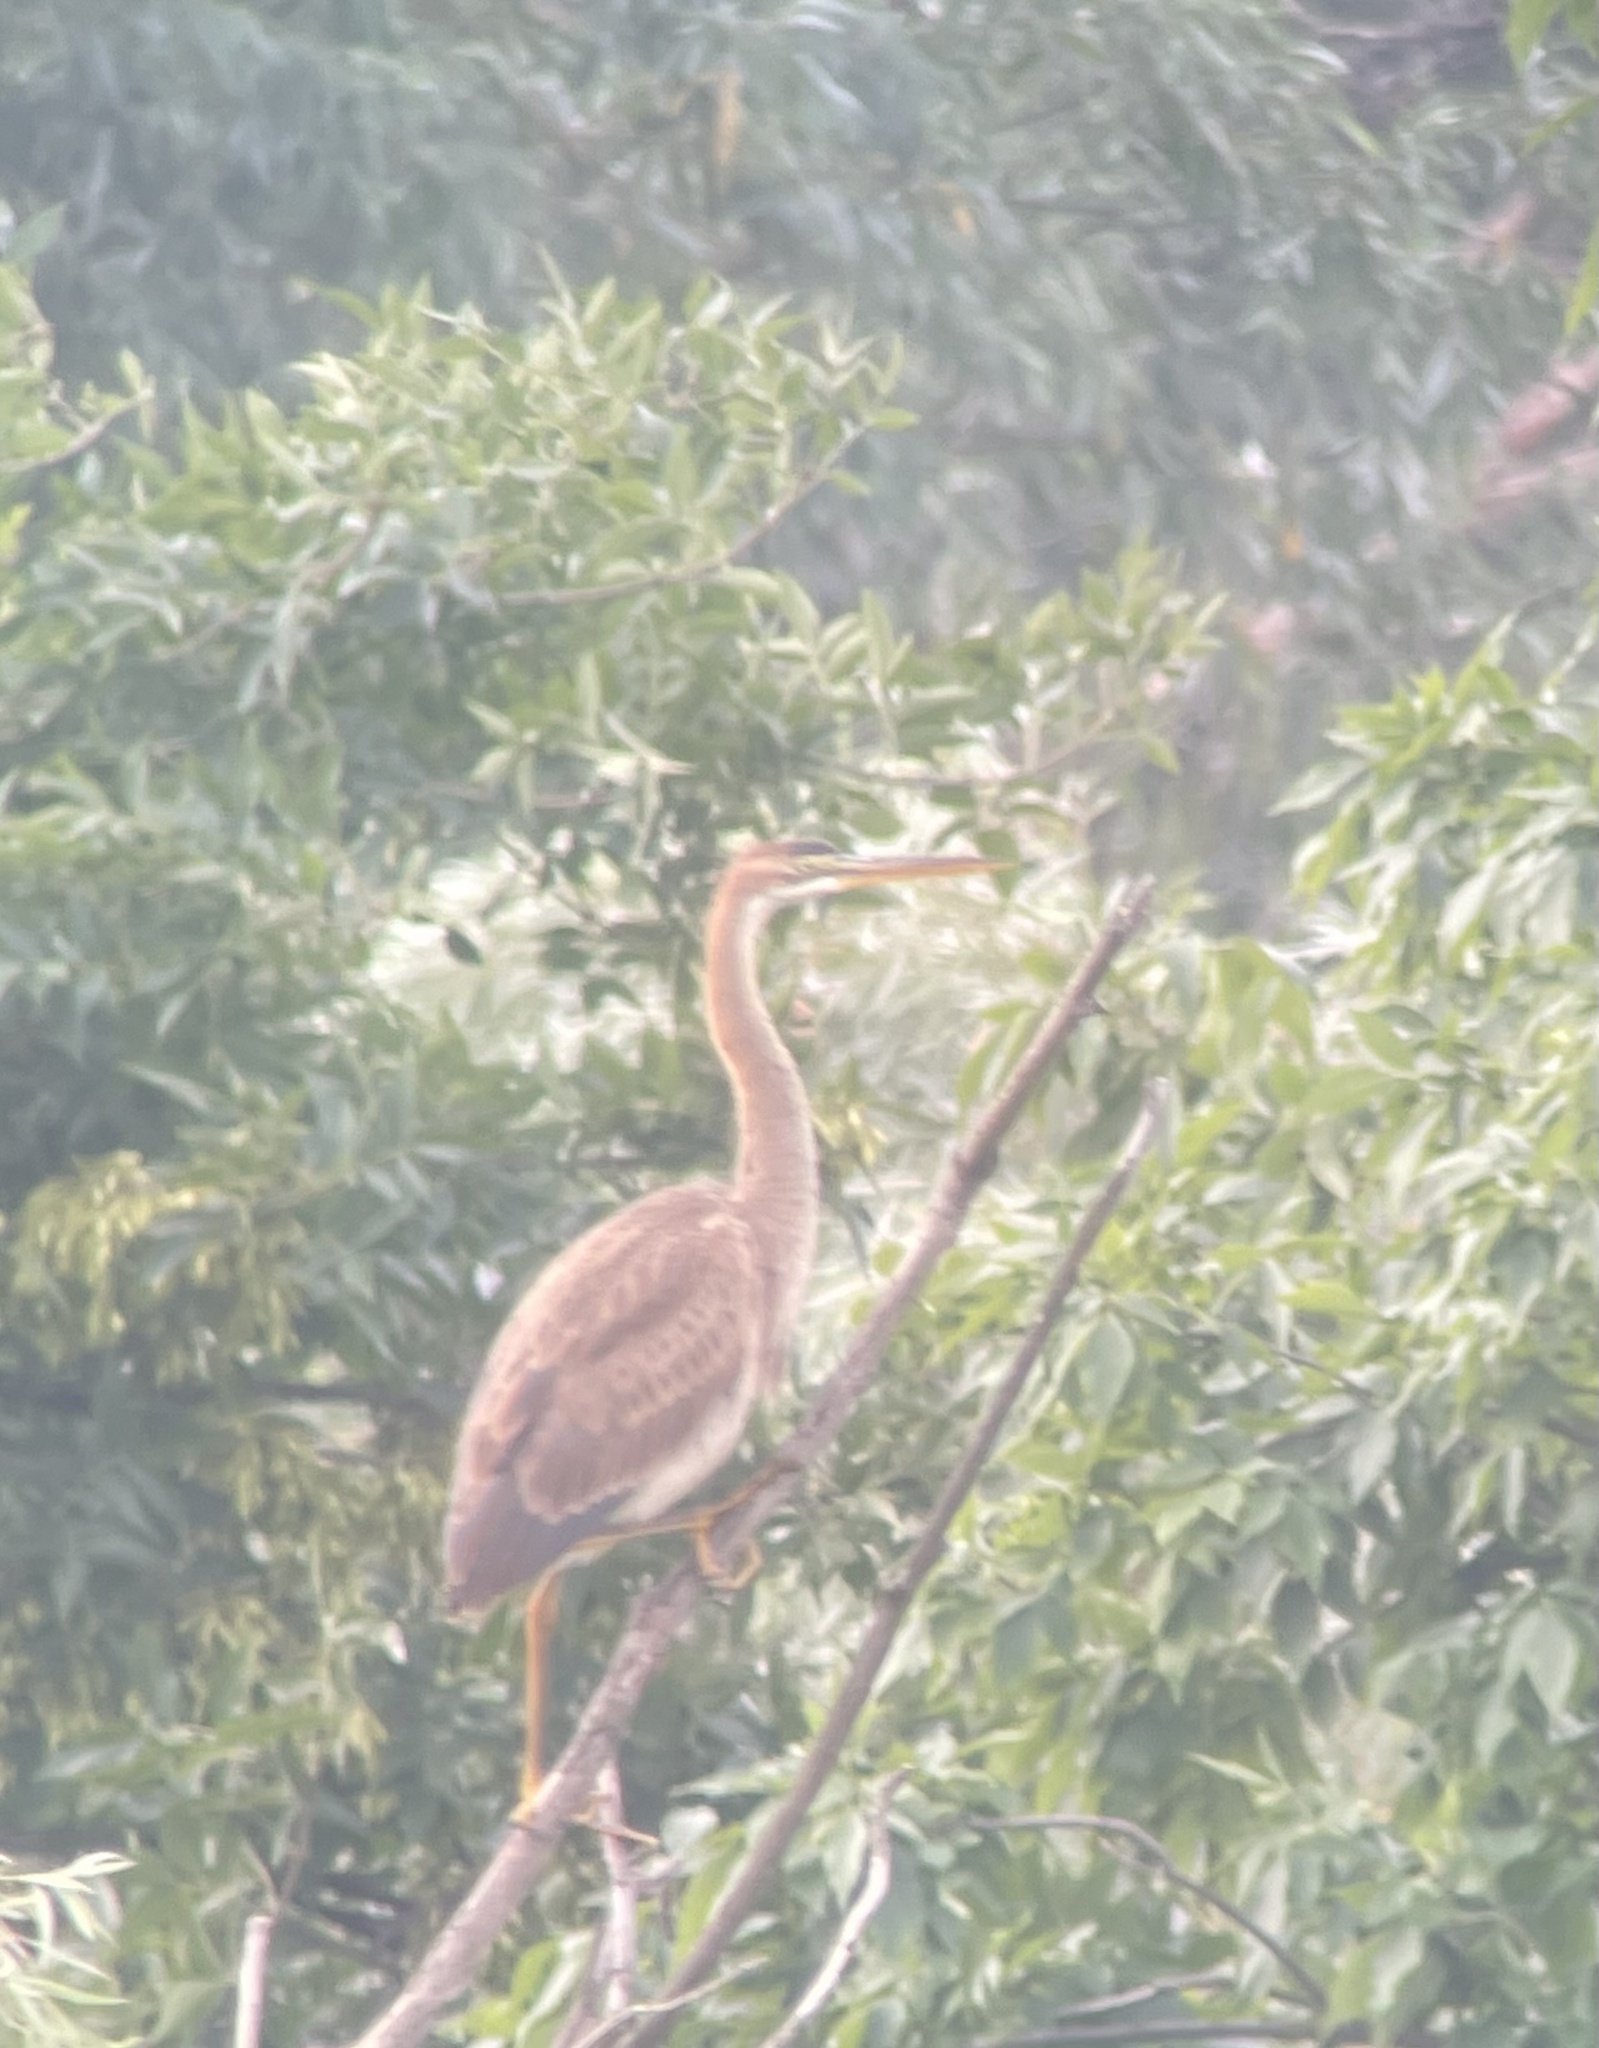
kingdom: Animalia
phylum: Chordata
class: Aves
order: Pelecaniformes
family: Ardeidae
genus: Ardea
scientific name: Ardea purpurea
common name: Purple heron
